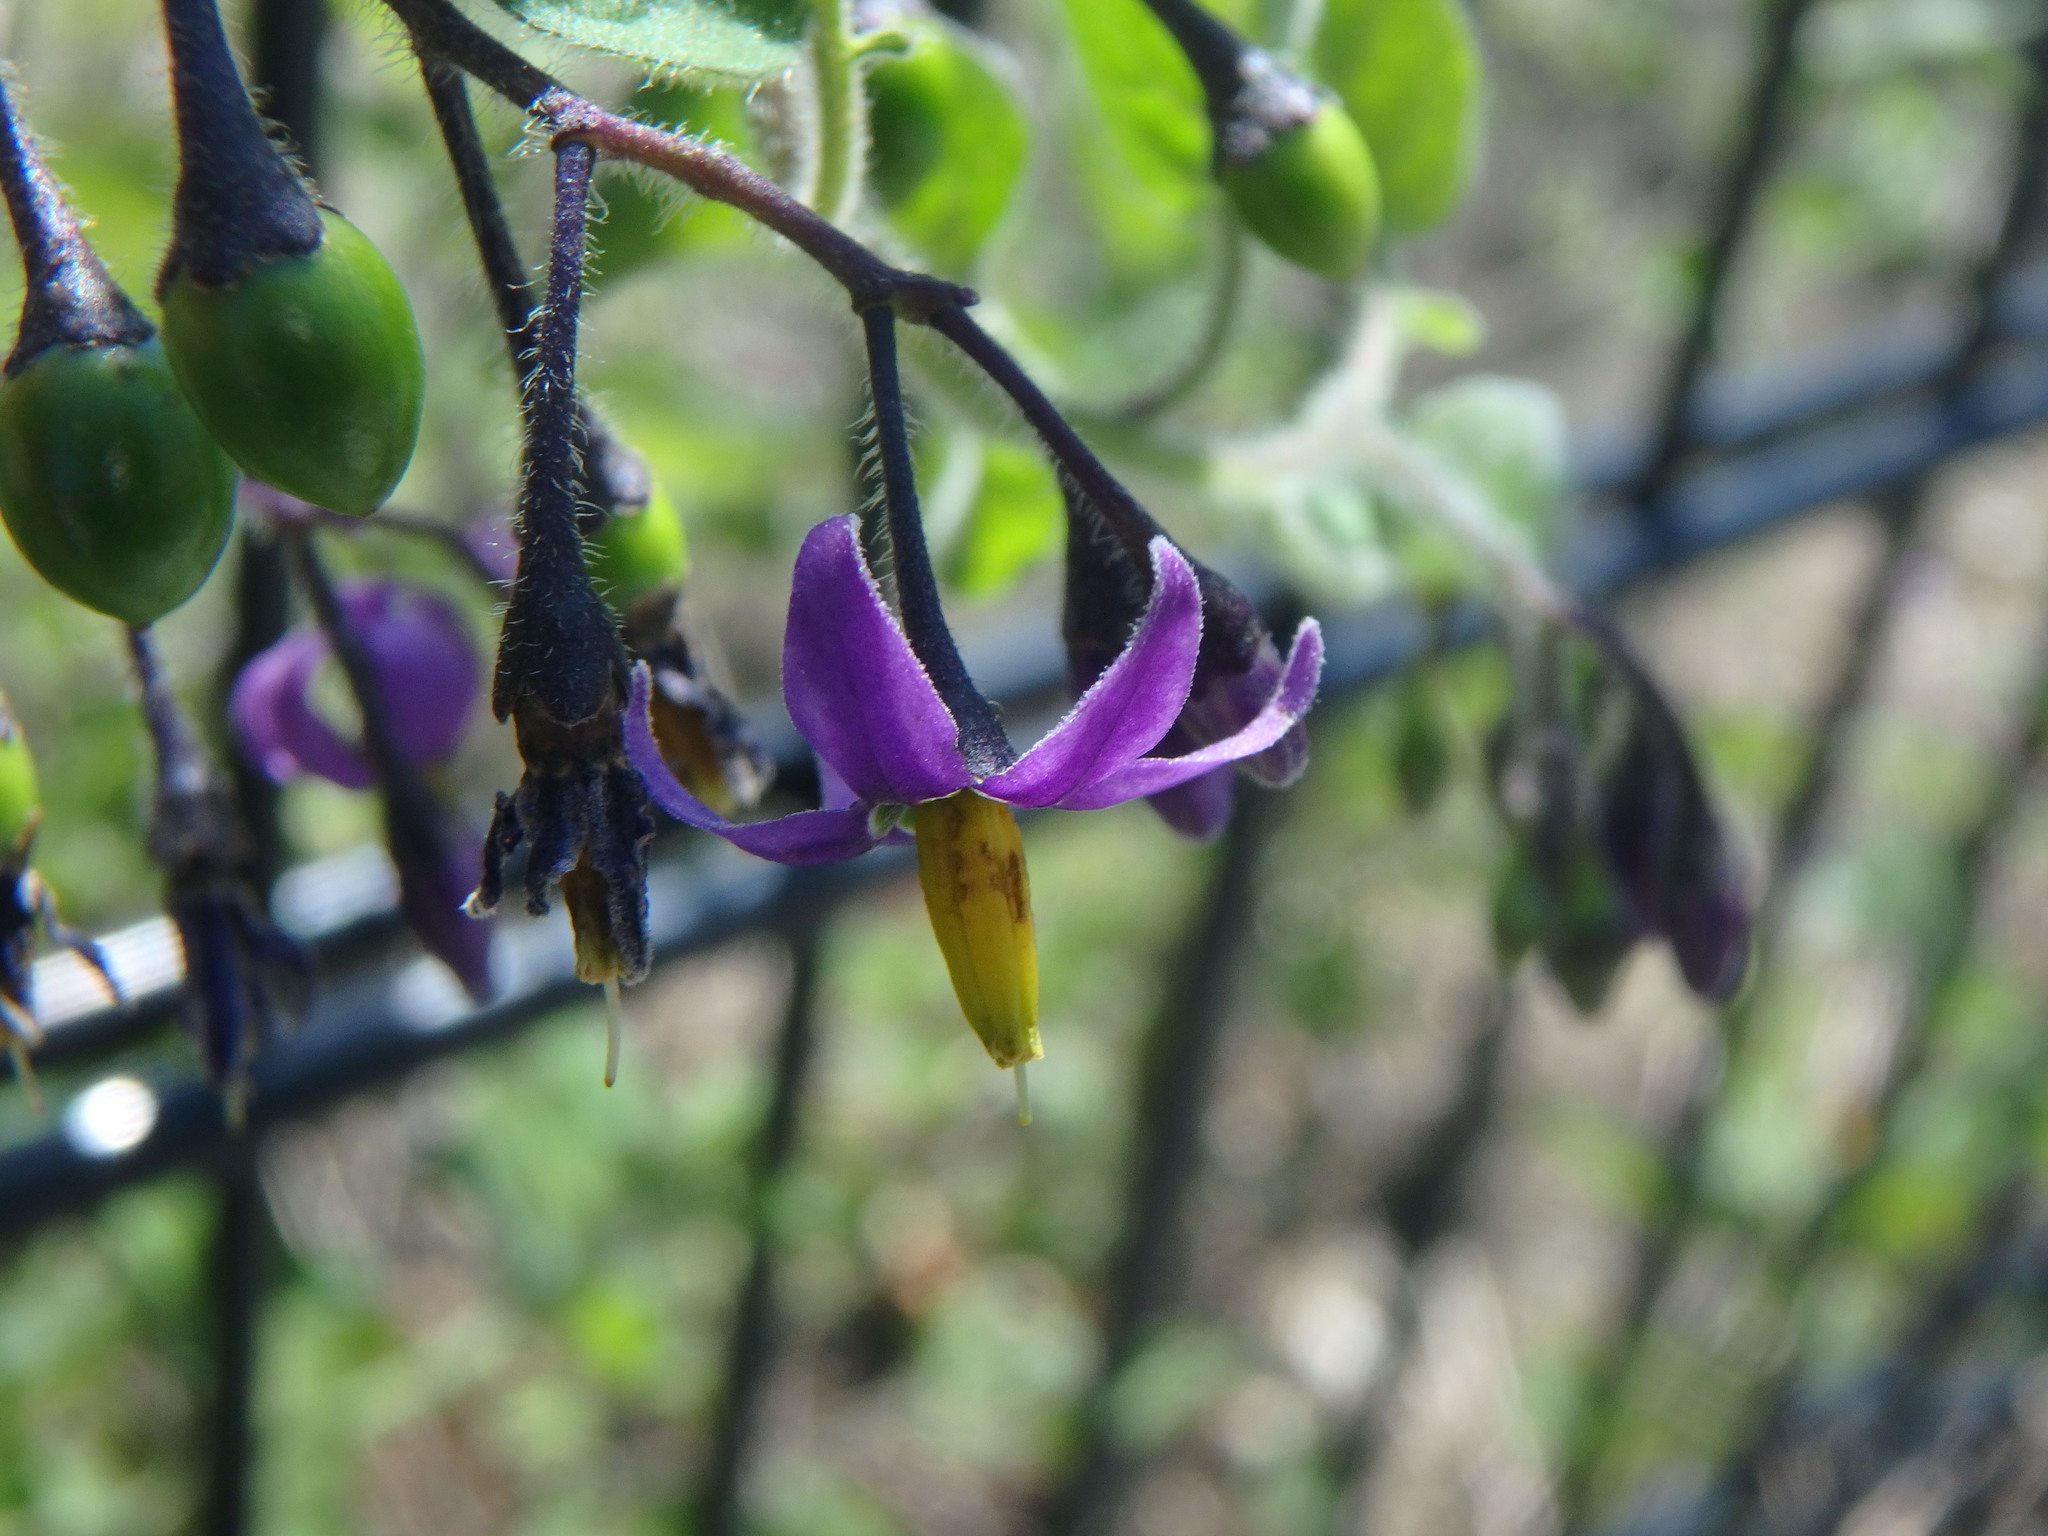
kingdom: Plantae
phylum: Tracheophyta
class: Magnoliopsida
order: Solanales
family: Solanaceae
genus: Solanum
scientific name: Solanum dulcamara
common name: Climbing nightshade
